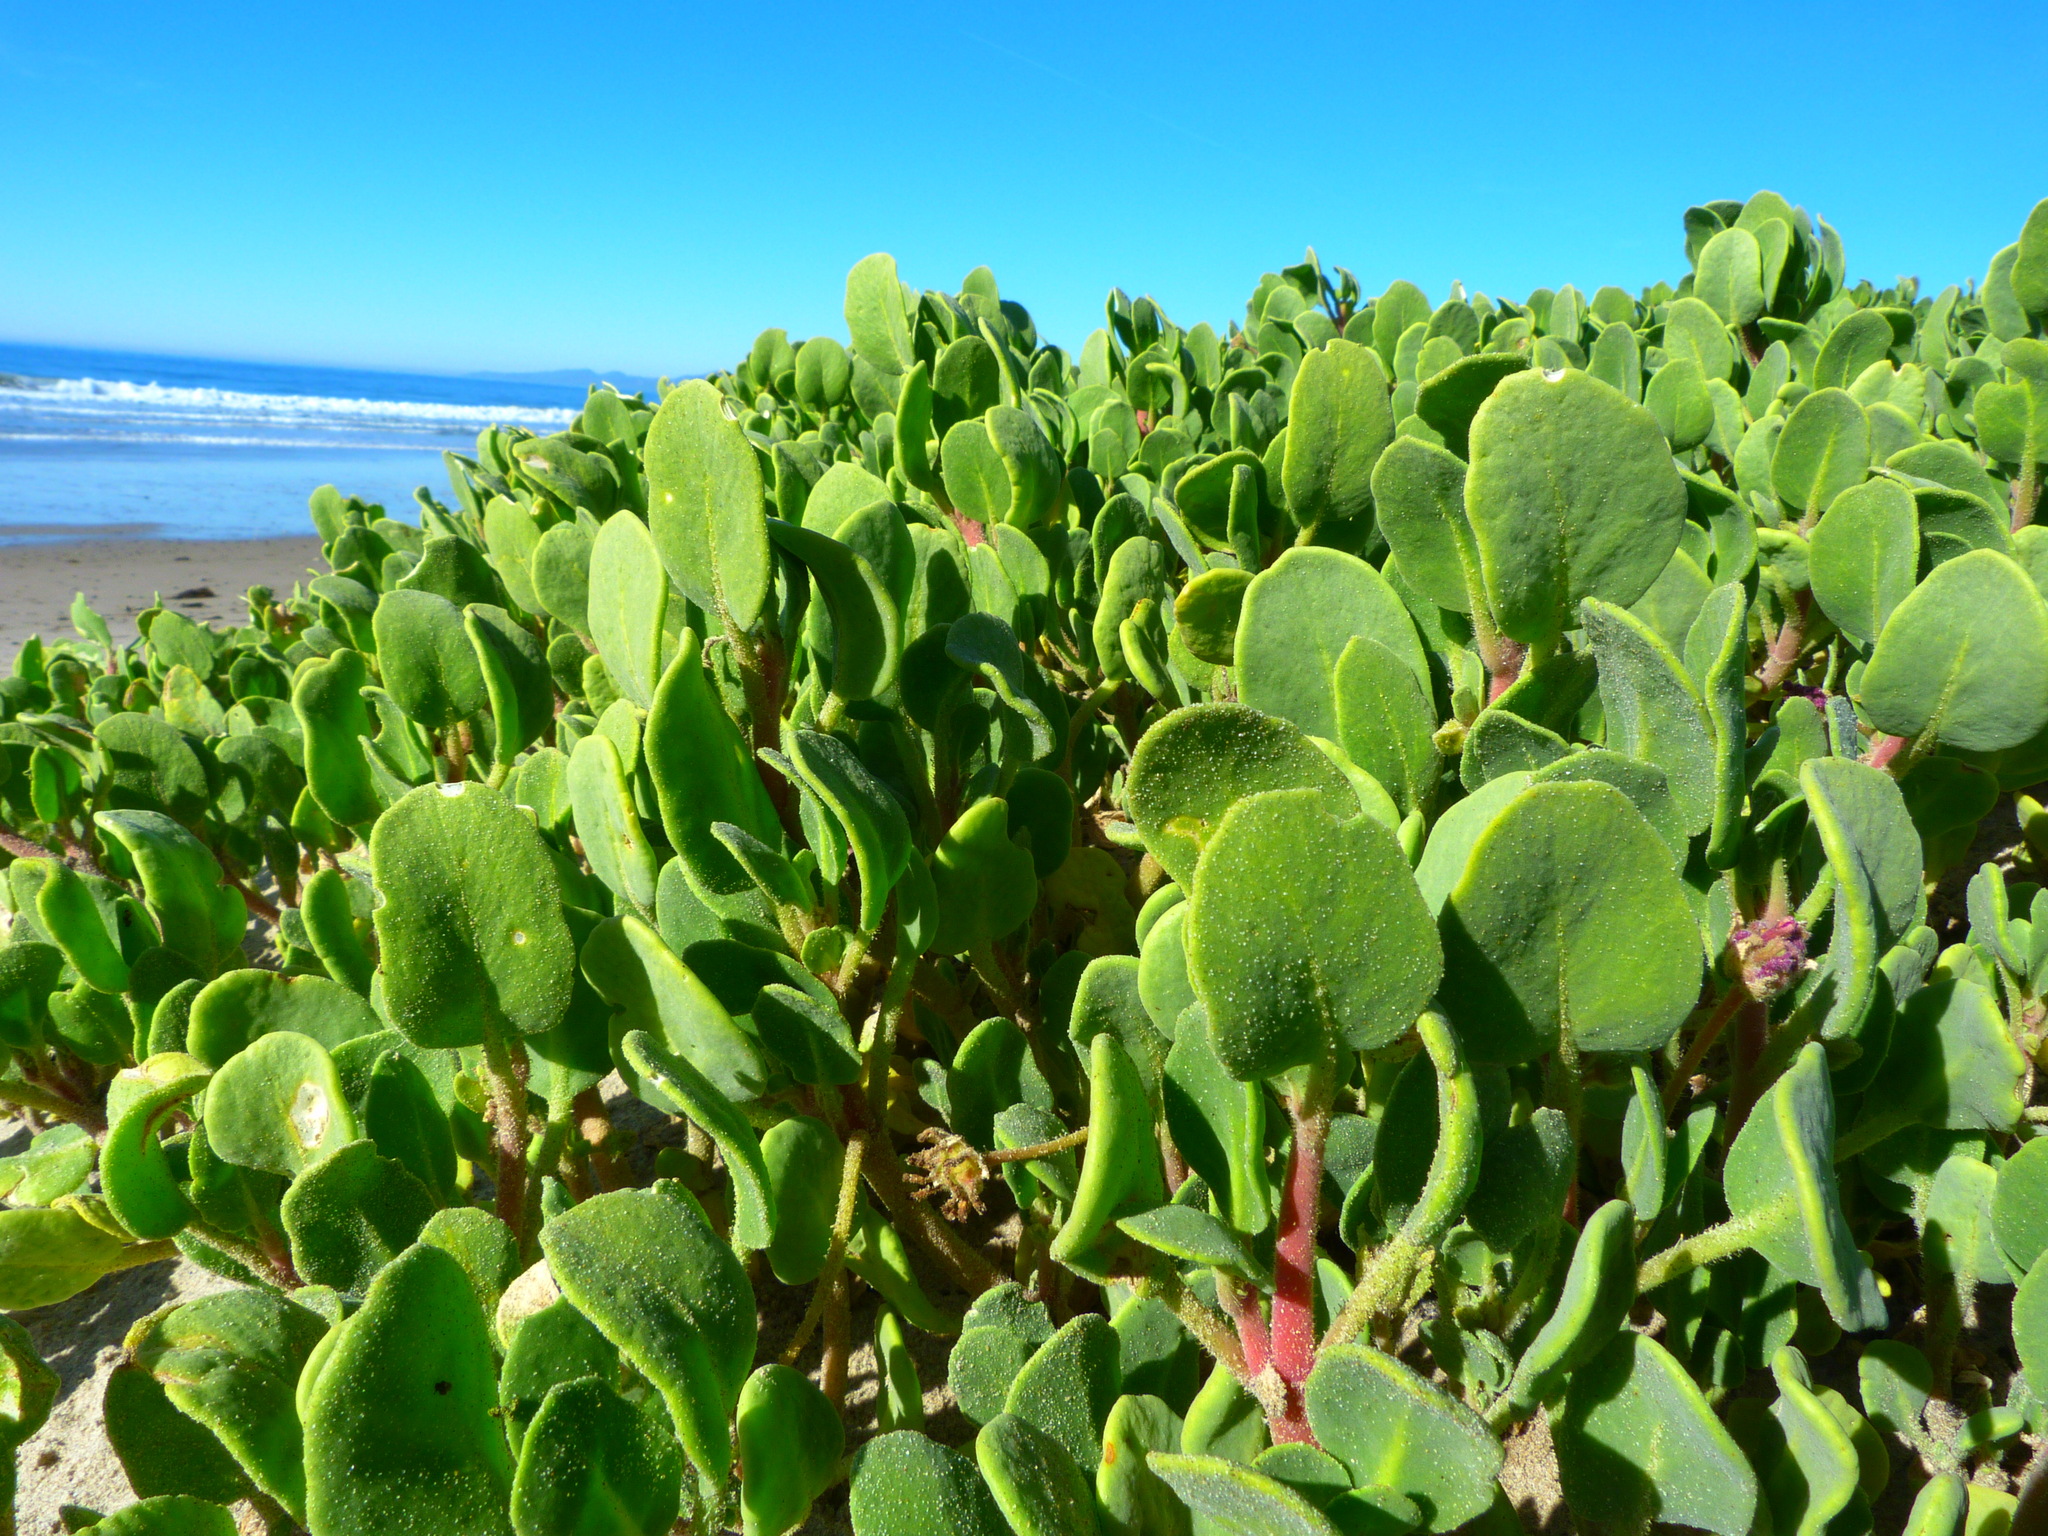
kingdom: Plantae
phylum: Tracheophyta
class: Magnoliopsida
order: Caryophyllales
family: Nyctaginaceae
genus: Abronia
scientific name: Abronia maritima
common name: Red sand-verbena
